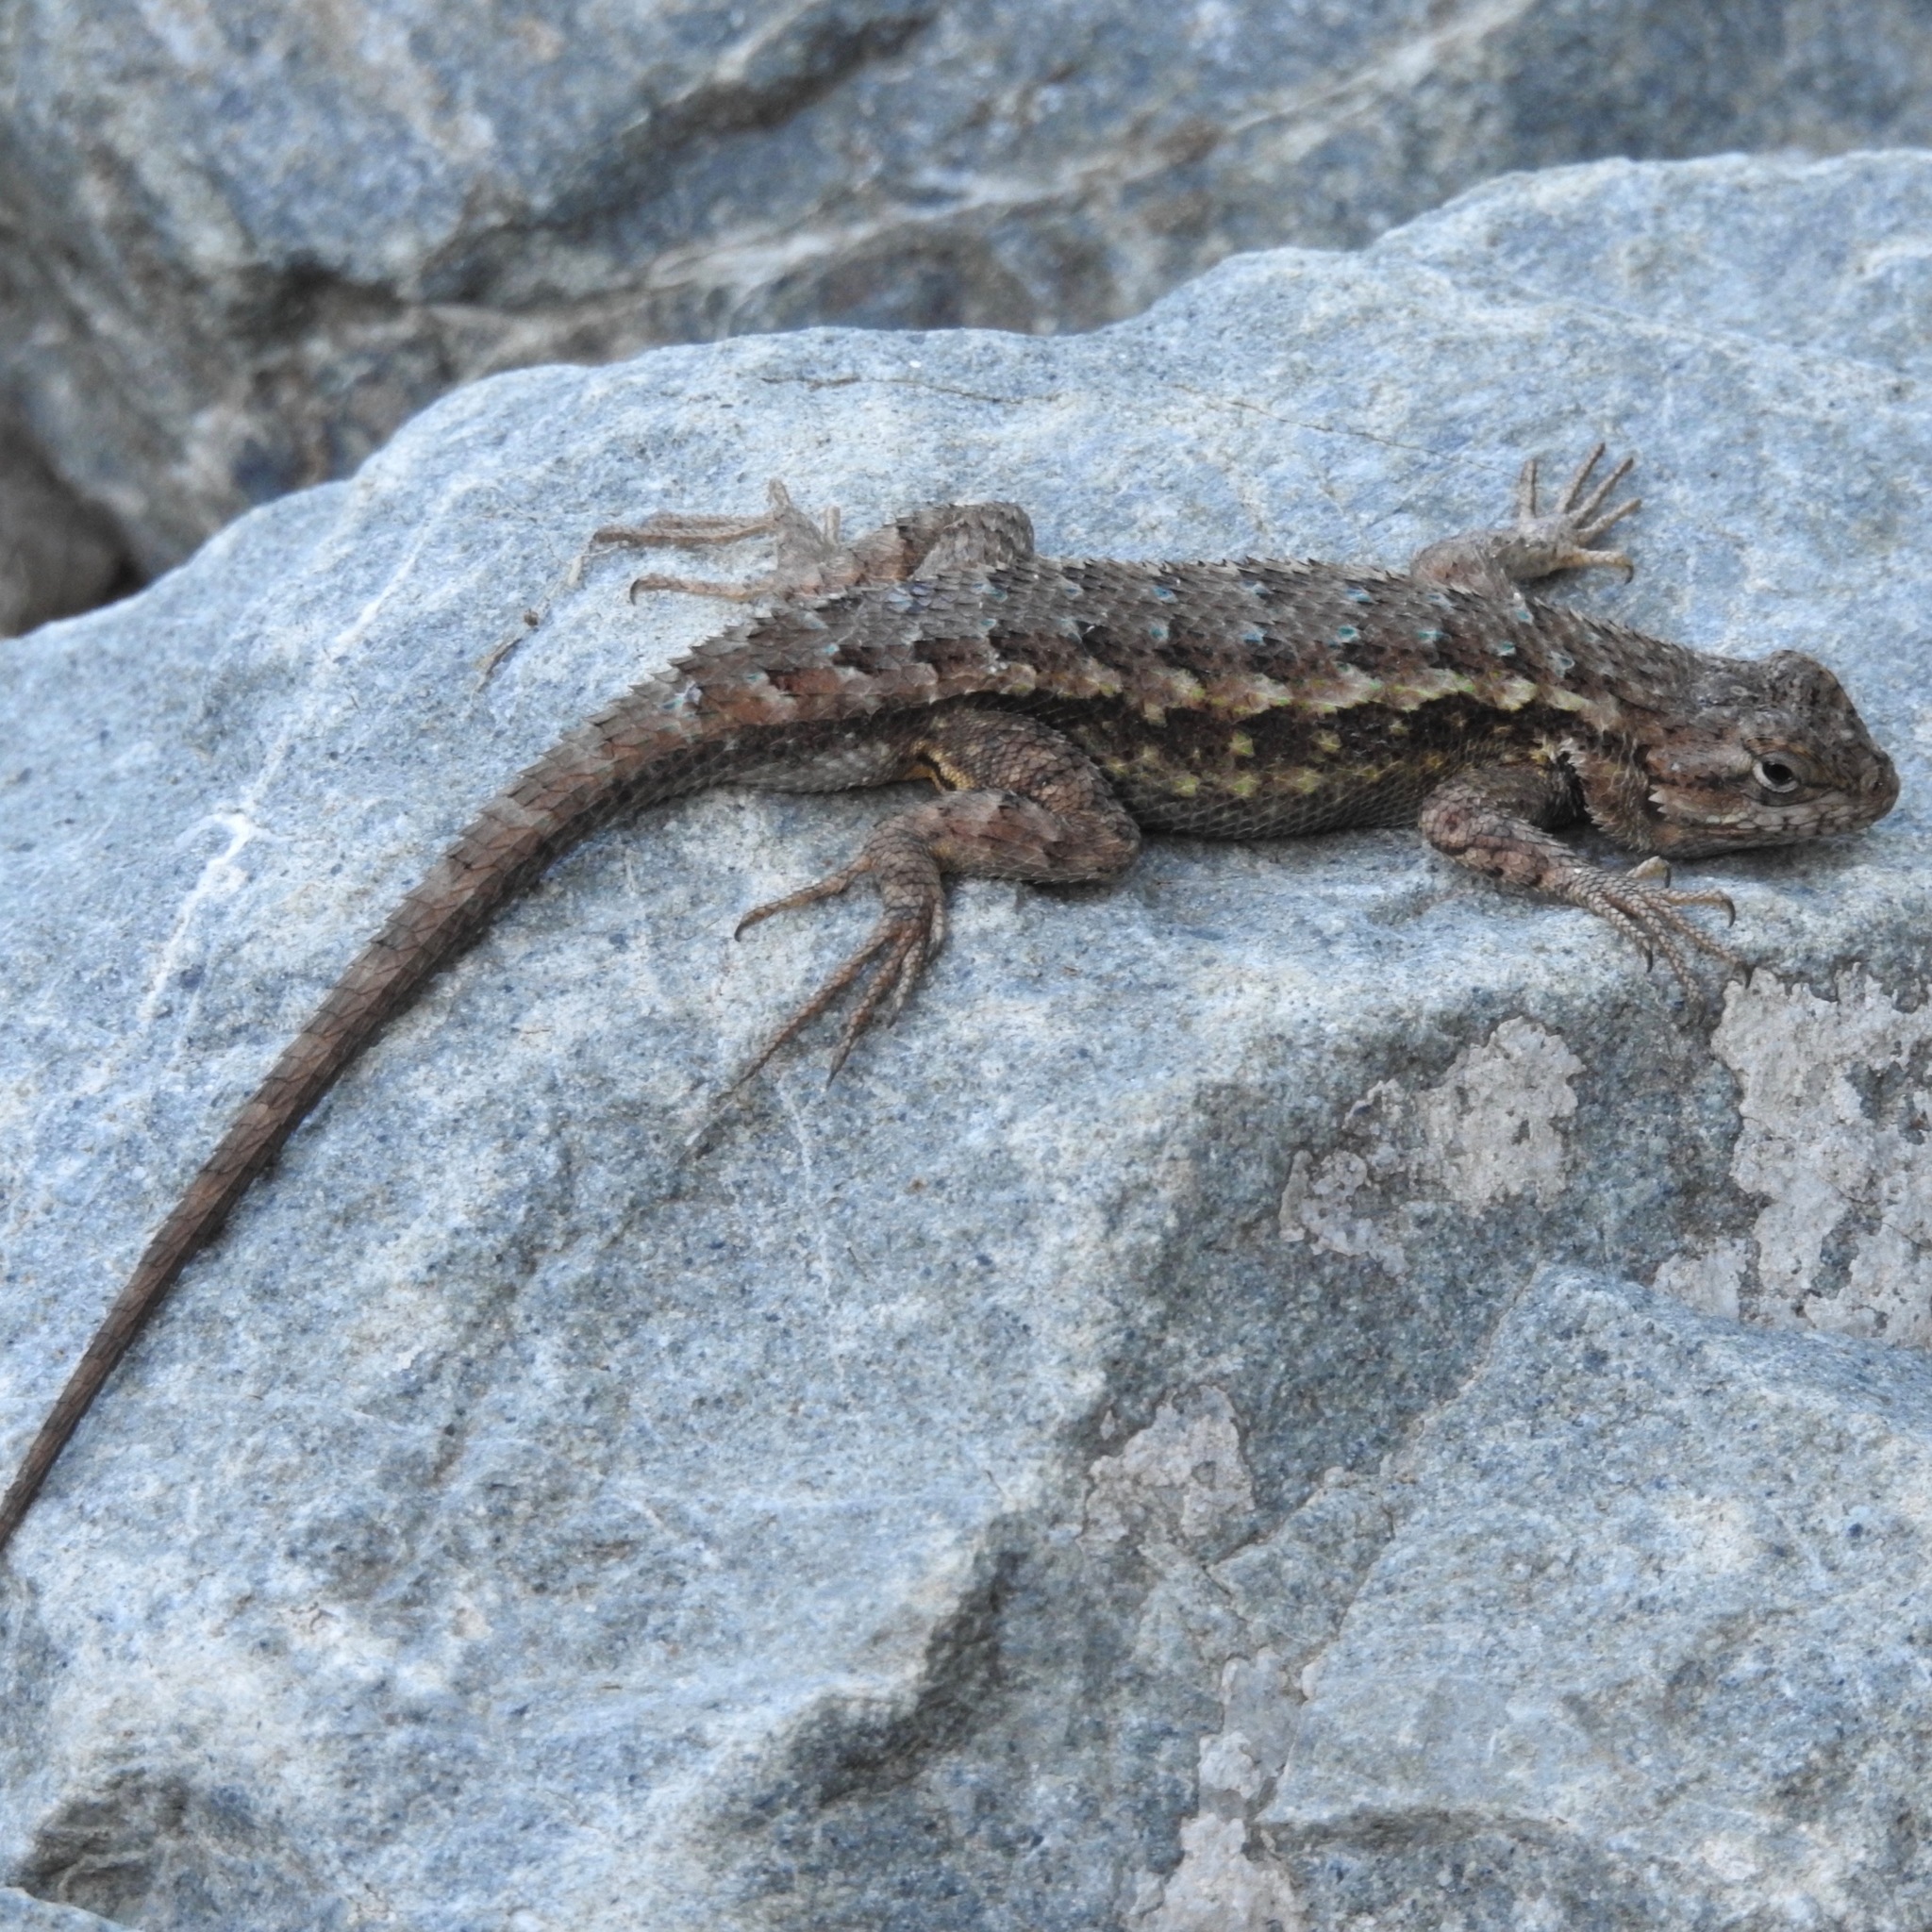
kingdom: Animalia
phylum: Chordata
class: Squamata
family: Phrynosomatidae
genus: Sceloporus
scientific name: Sceloporus occidentalis
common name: Western fence lizard
